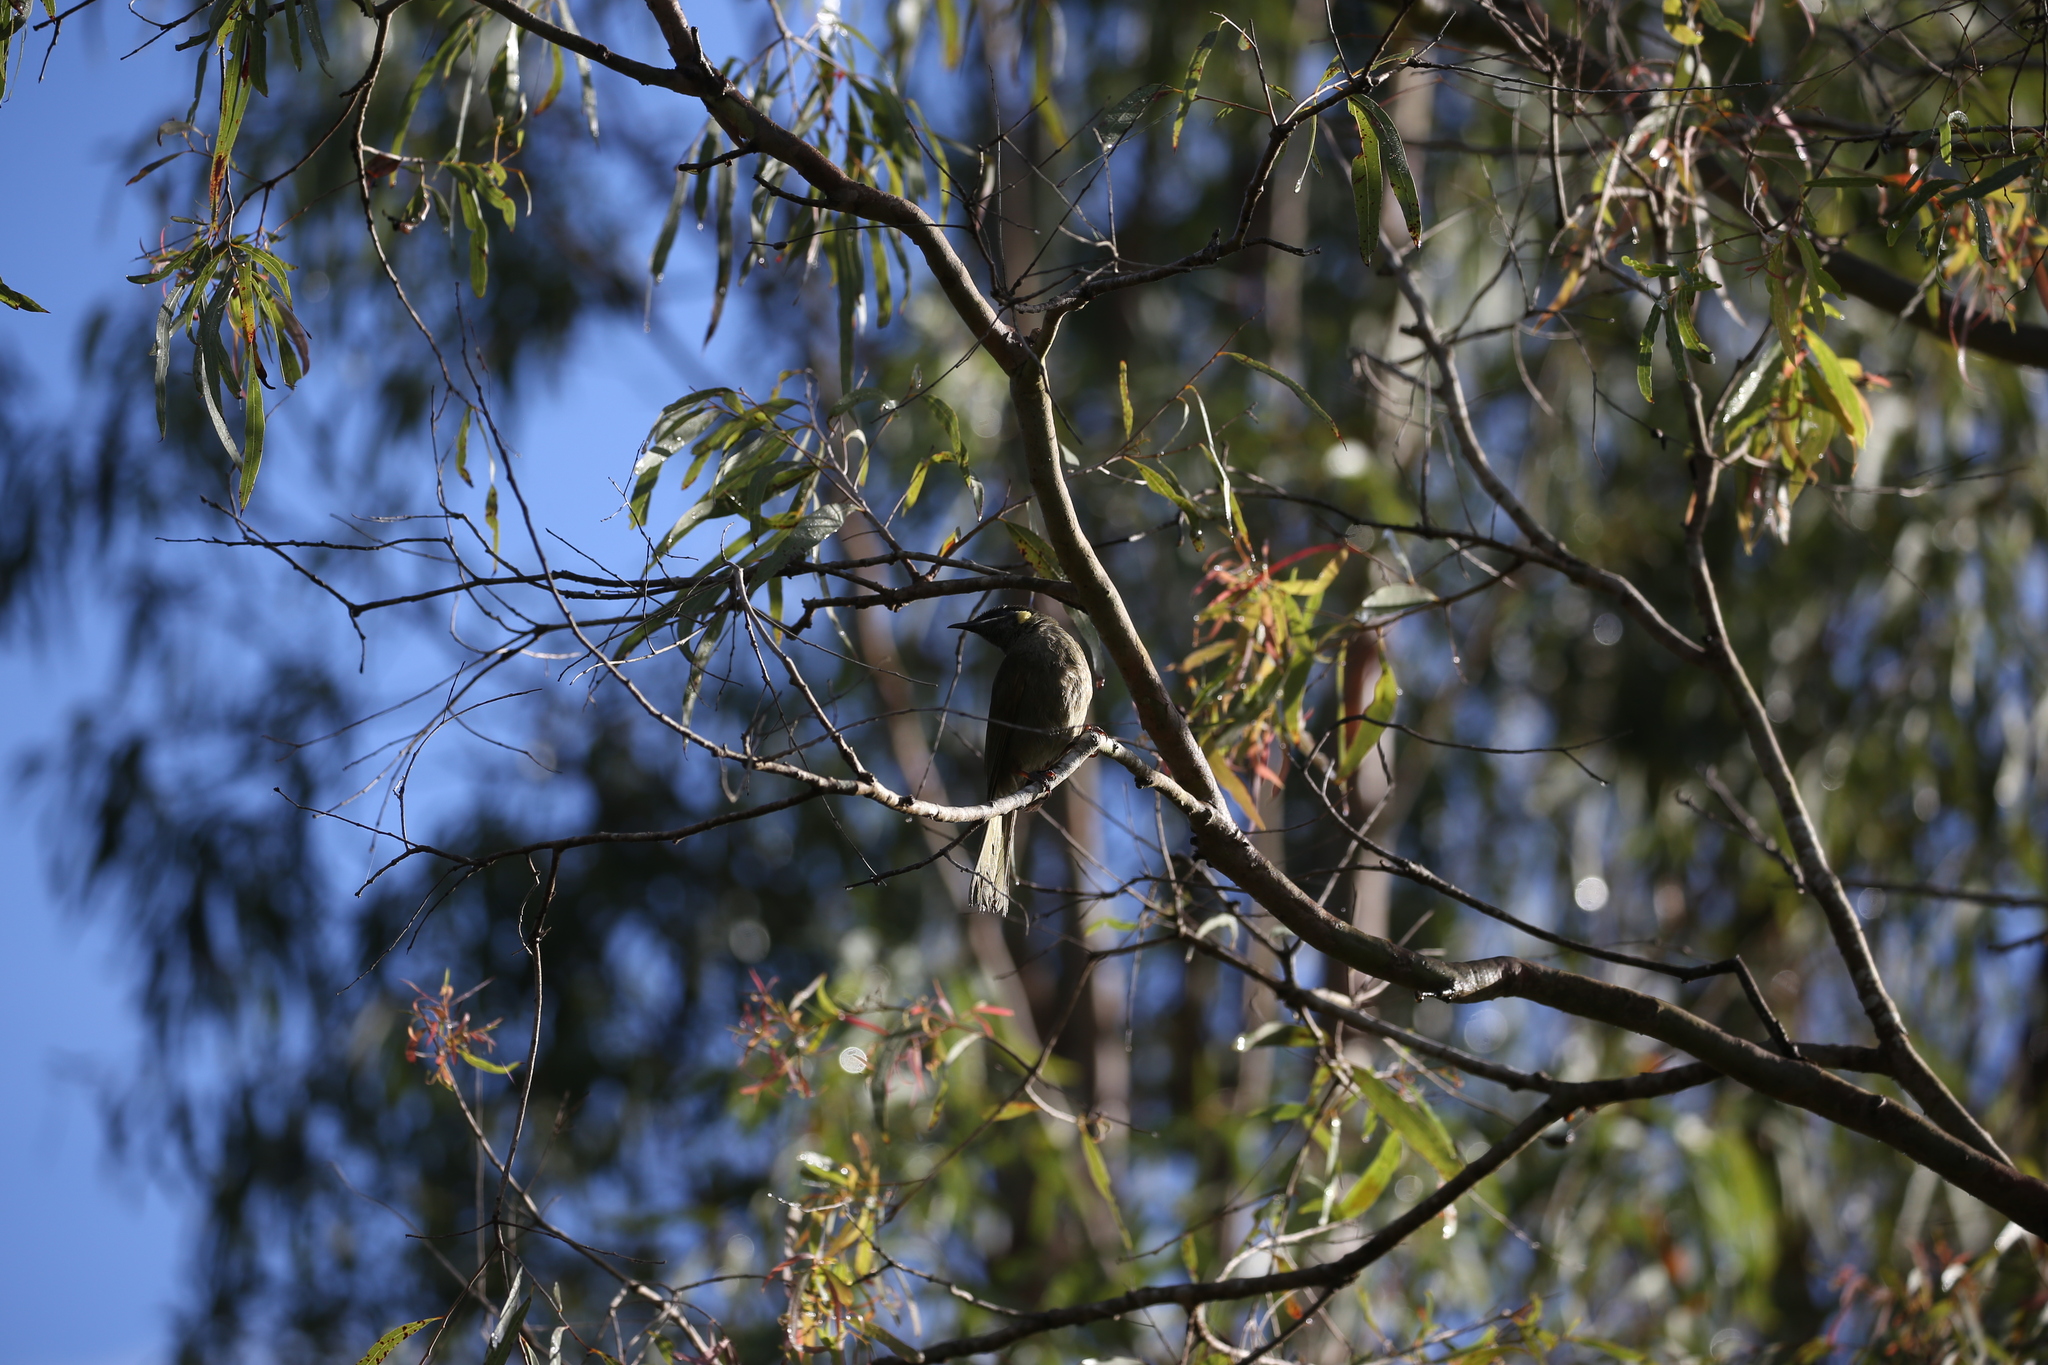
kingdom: Animalia
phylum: Chordata
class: Aves
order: Passeriformes
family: Meliphagidae
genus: Meliphaga
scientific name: Meliphaga lewinii
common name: Lewin's honeyeater
